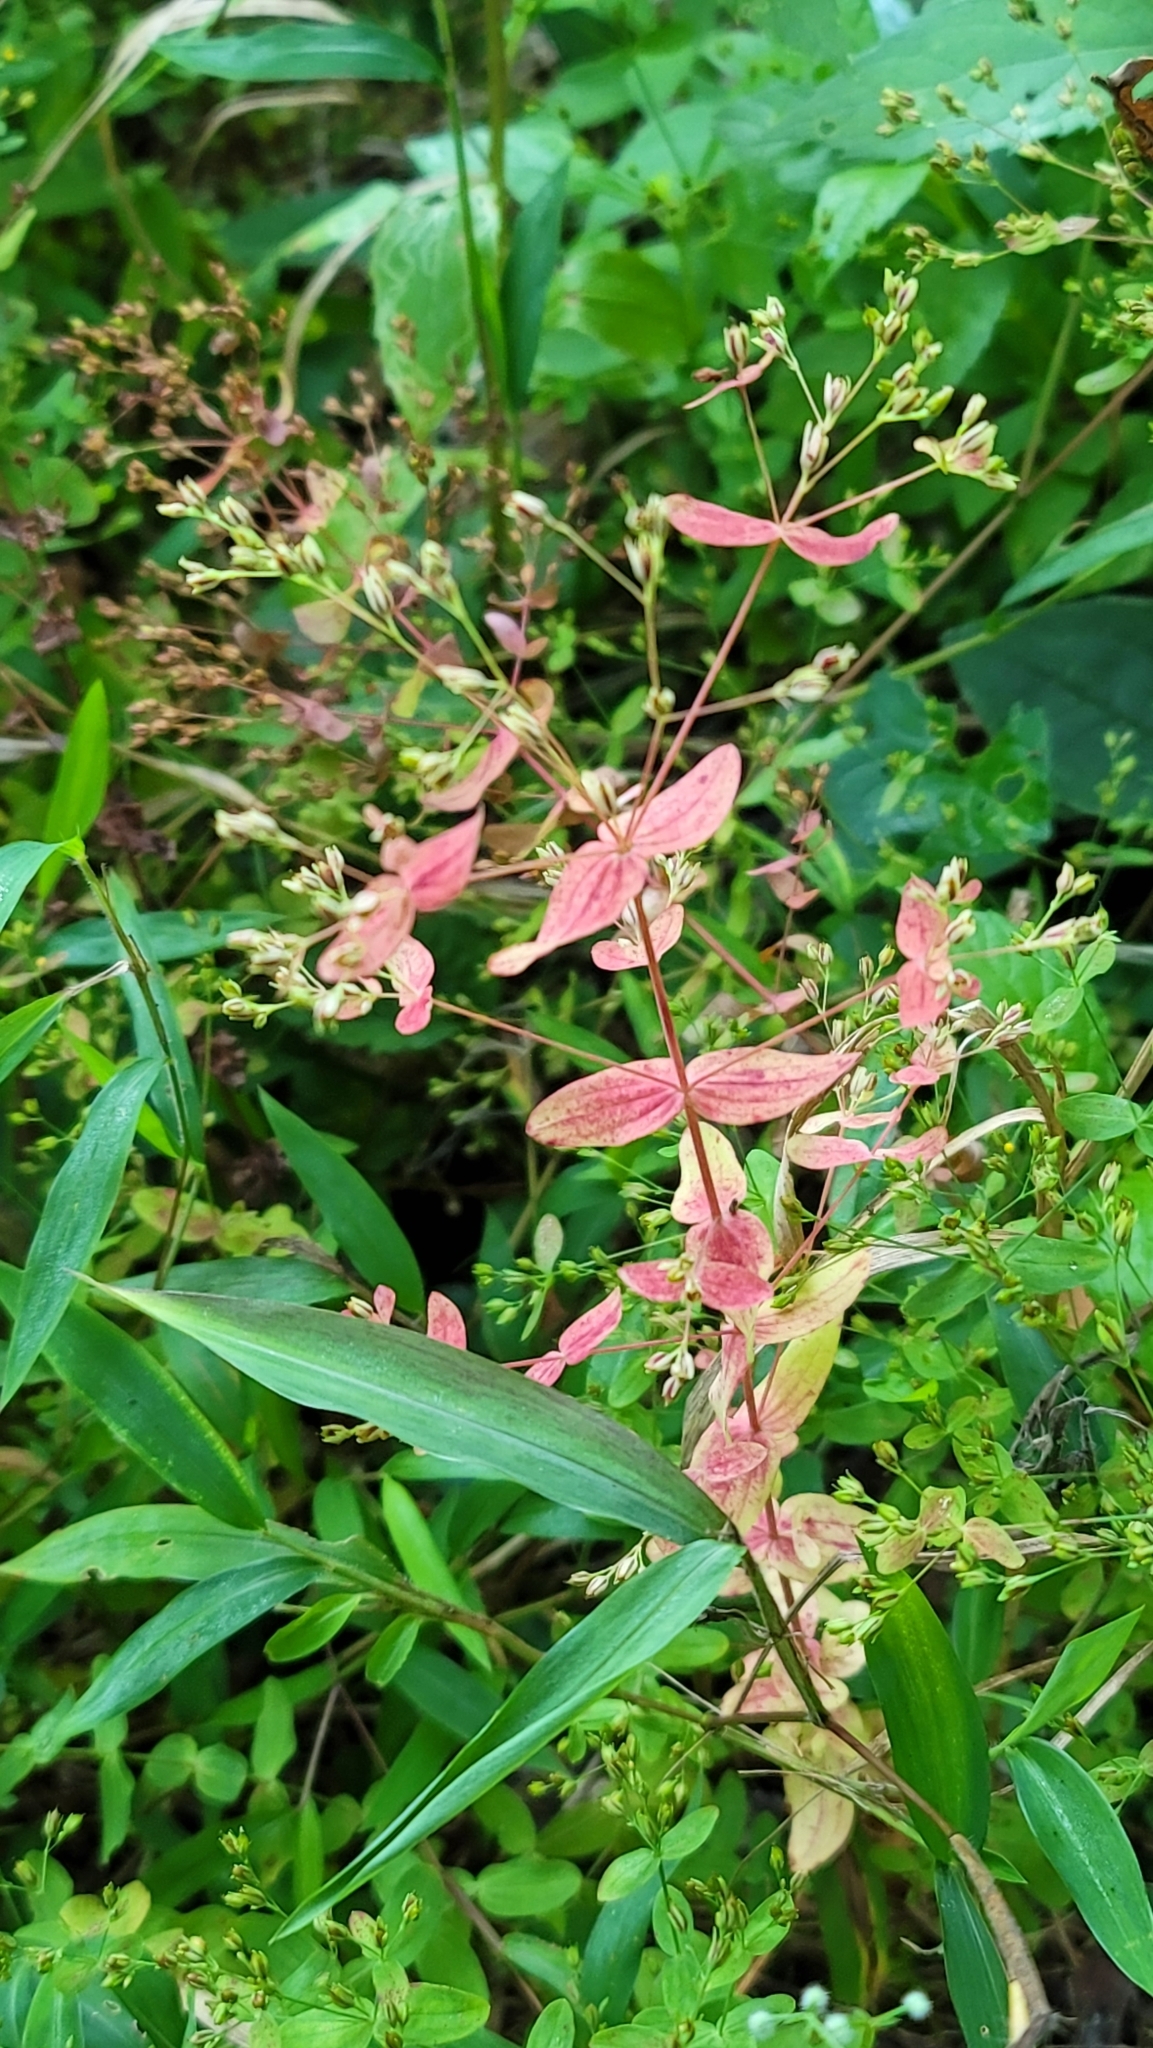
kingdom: Plantae
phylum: Tracheophyta
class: Magnoliopsida
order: Malpighiales
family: Hypericaceae
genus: Hypericum
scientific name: Hypericum mutilum
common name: Dwarf st. john's-wort
